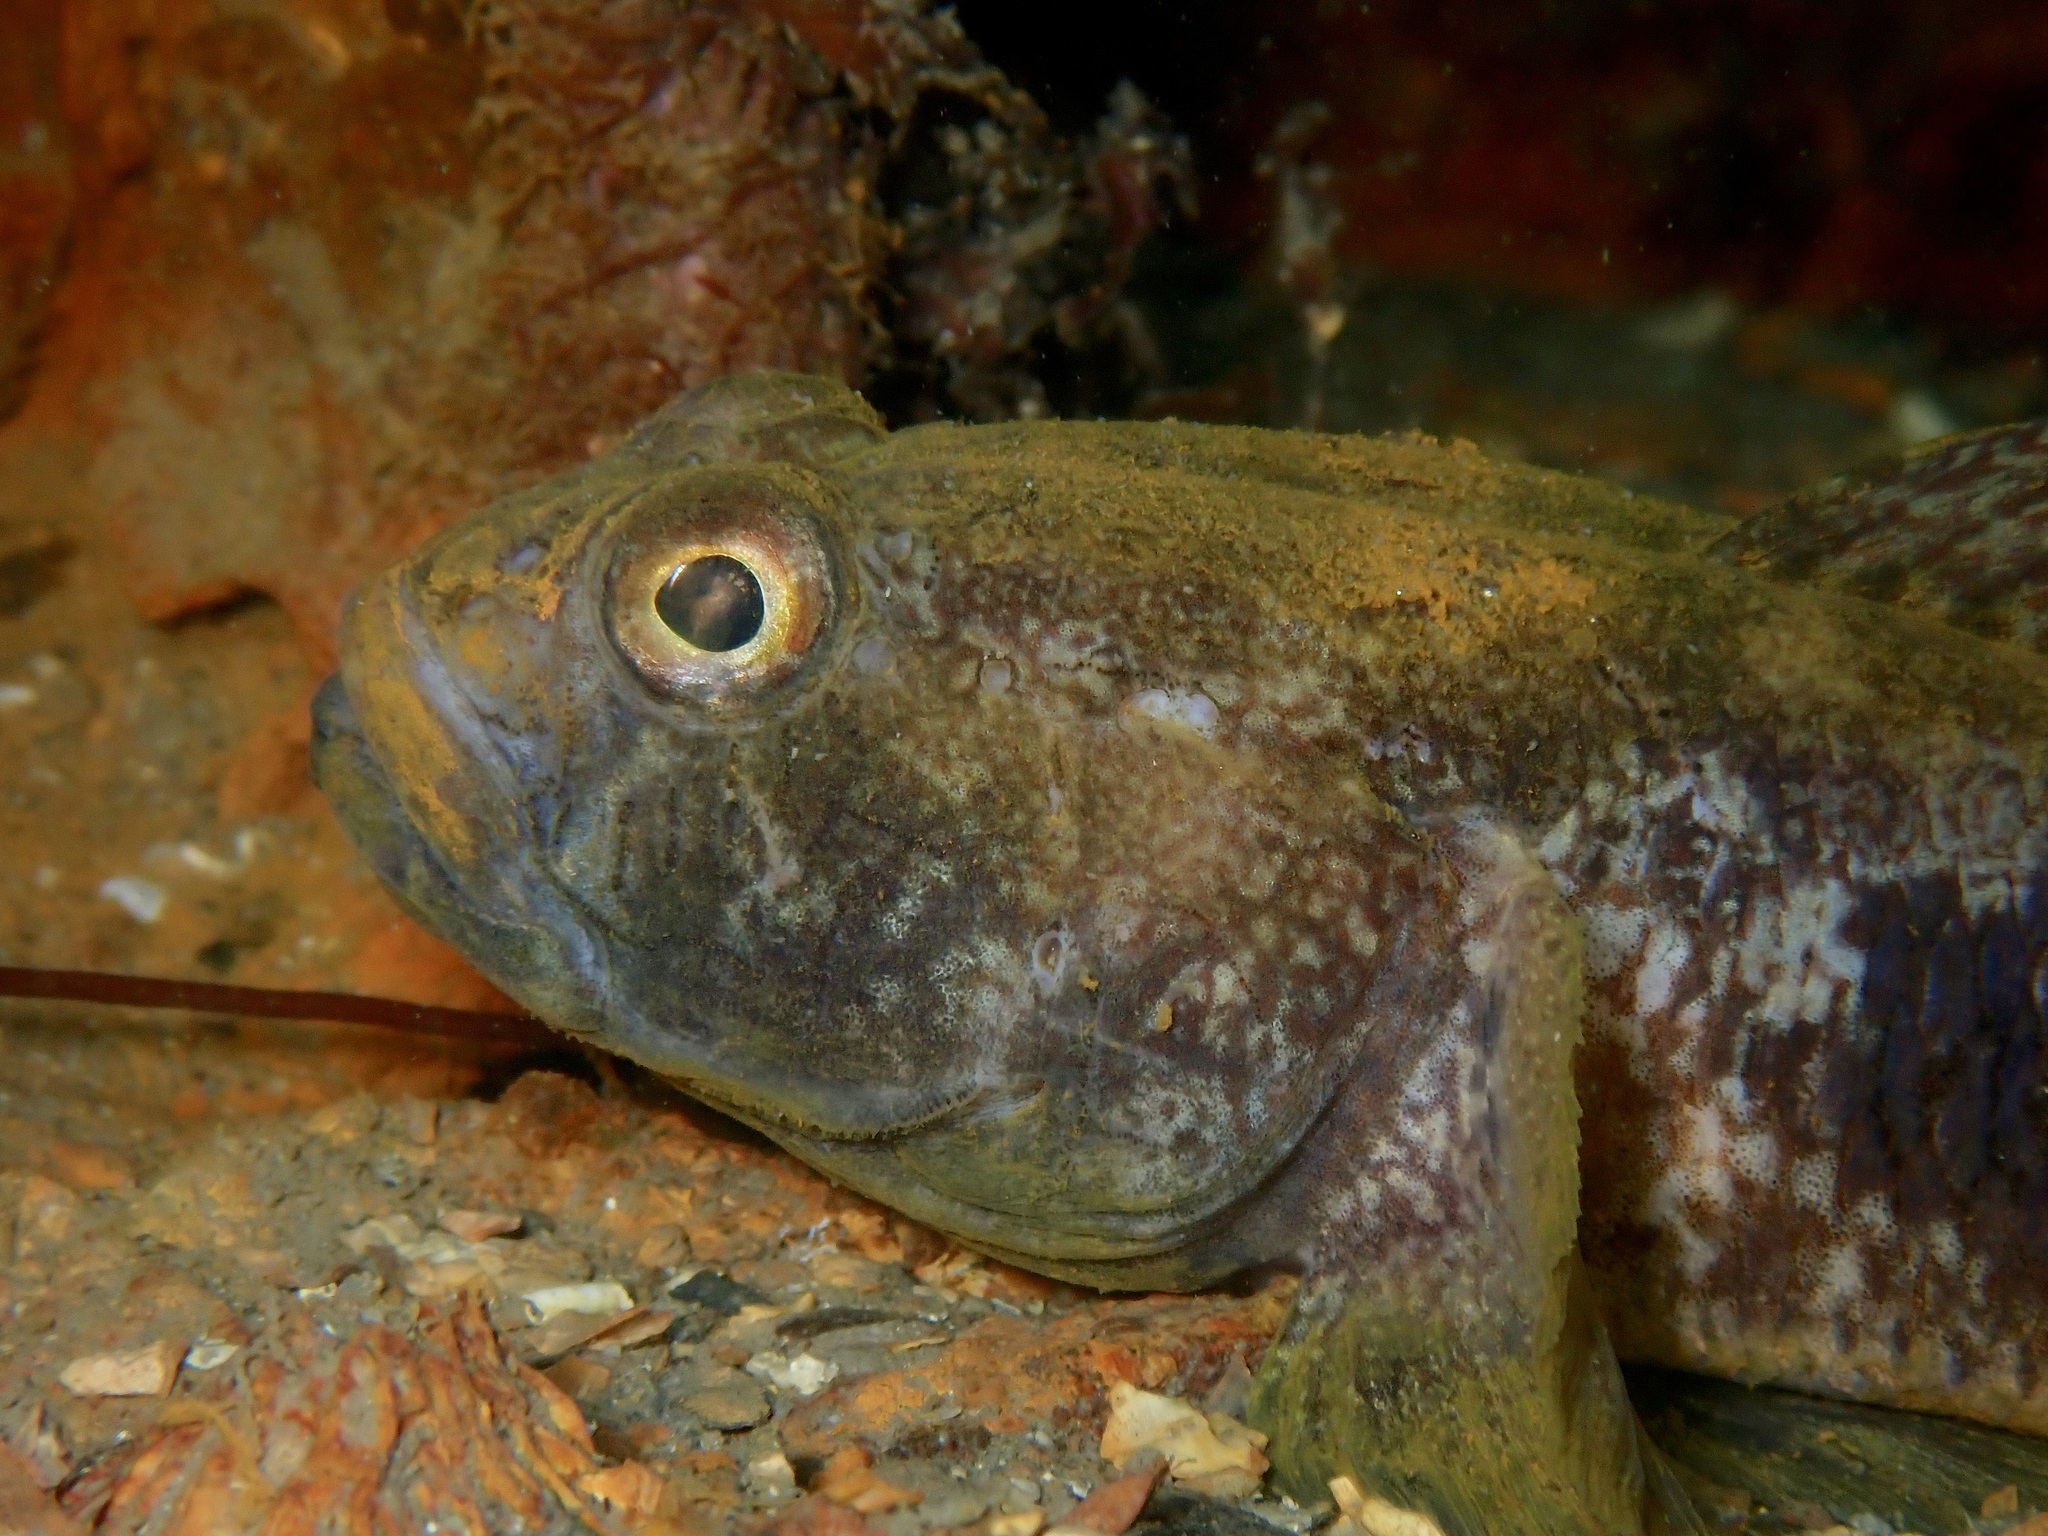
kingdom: Animalia
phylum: Chordata
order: Perciformes
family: Gobiidae
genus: Gobius
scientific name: Gobius niger
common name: Black goby
